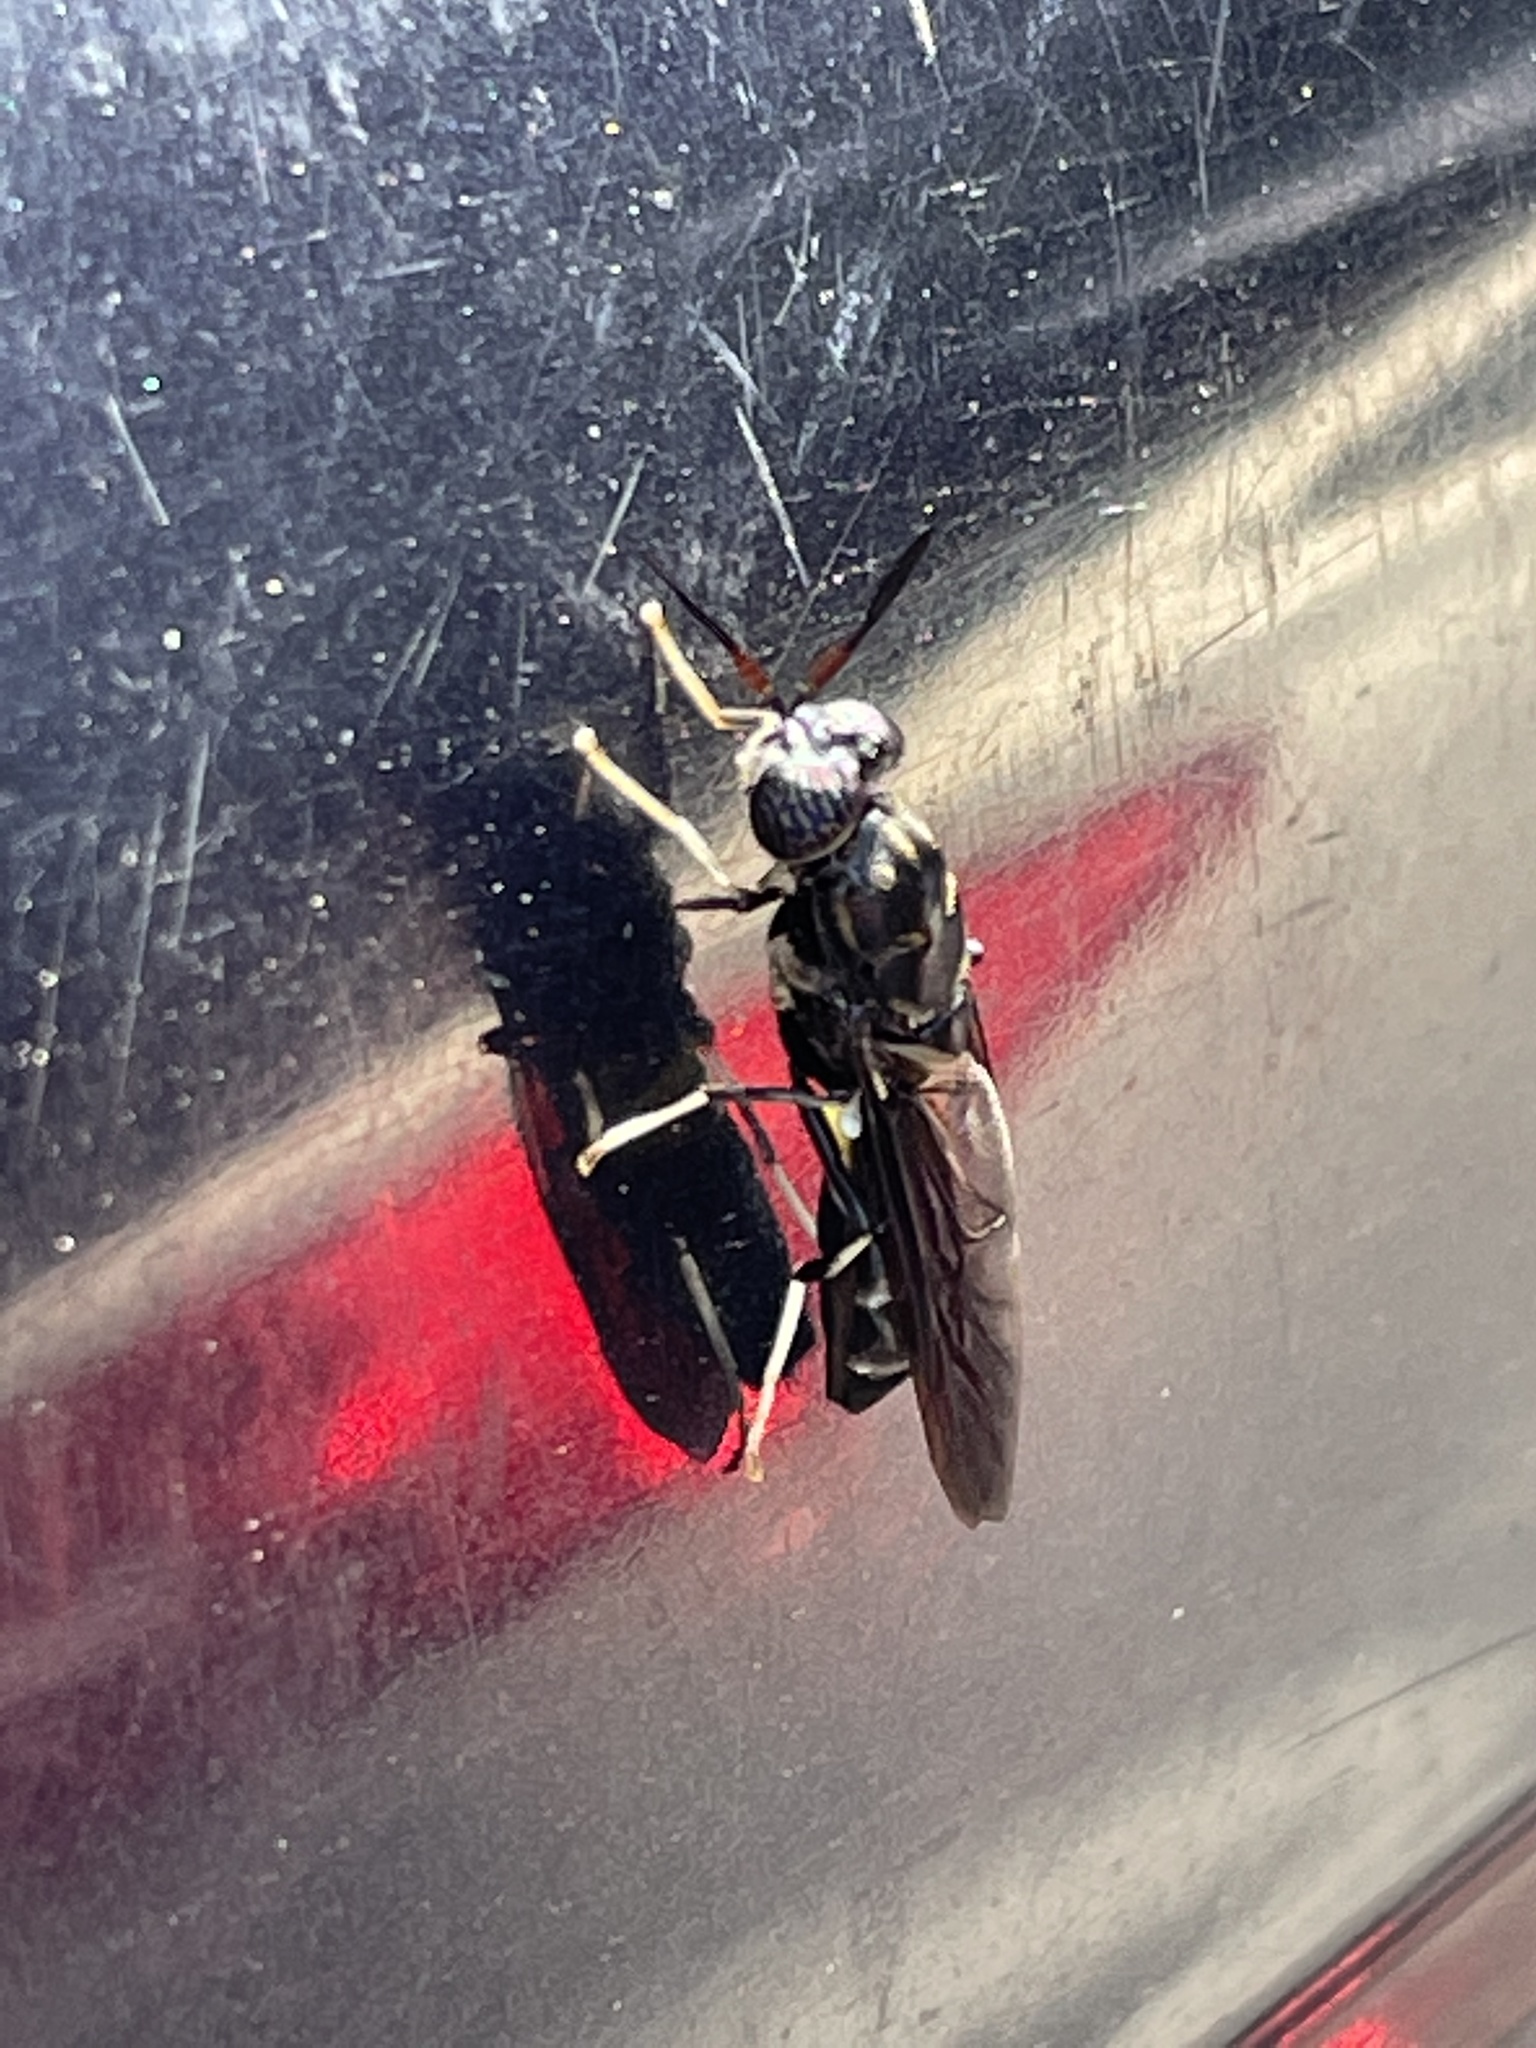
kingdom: Animalia
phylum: Arthropoda
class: Insecta
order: Diptera
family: Stratiomyidae
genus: Hermetia
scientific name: Hermetia illucens
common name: Black soldier fly
